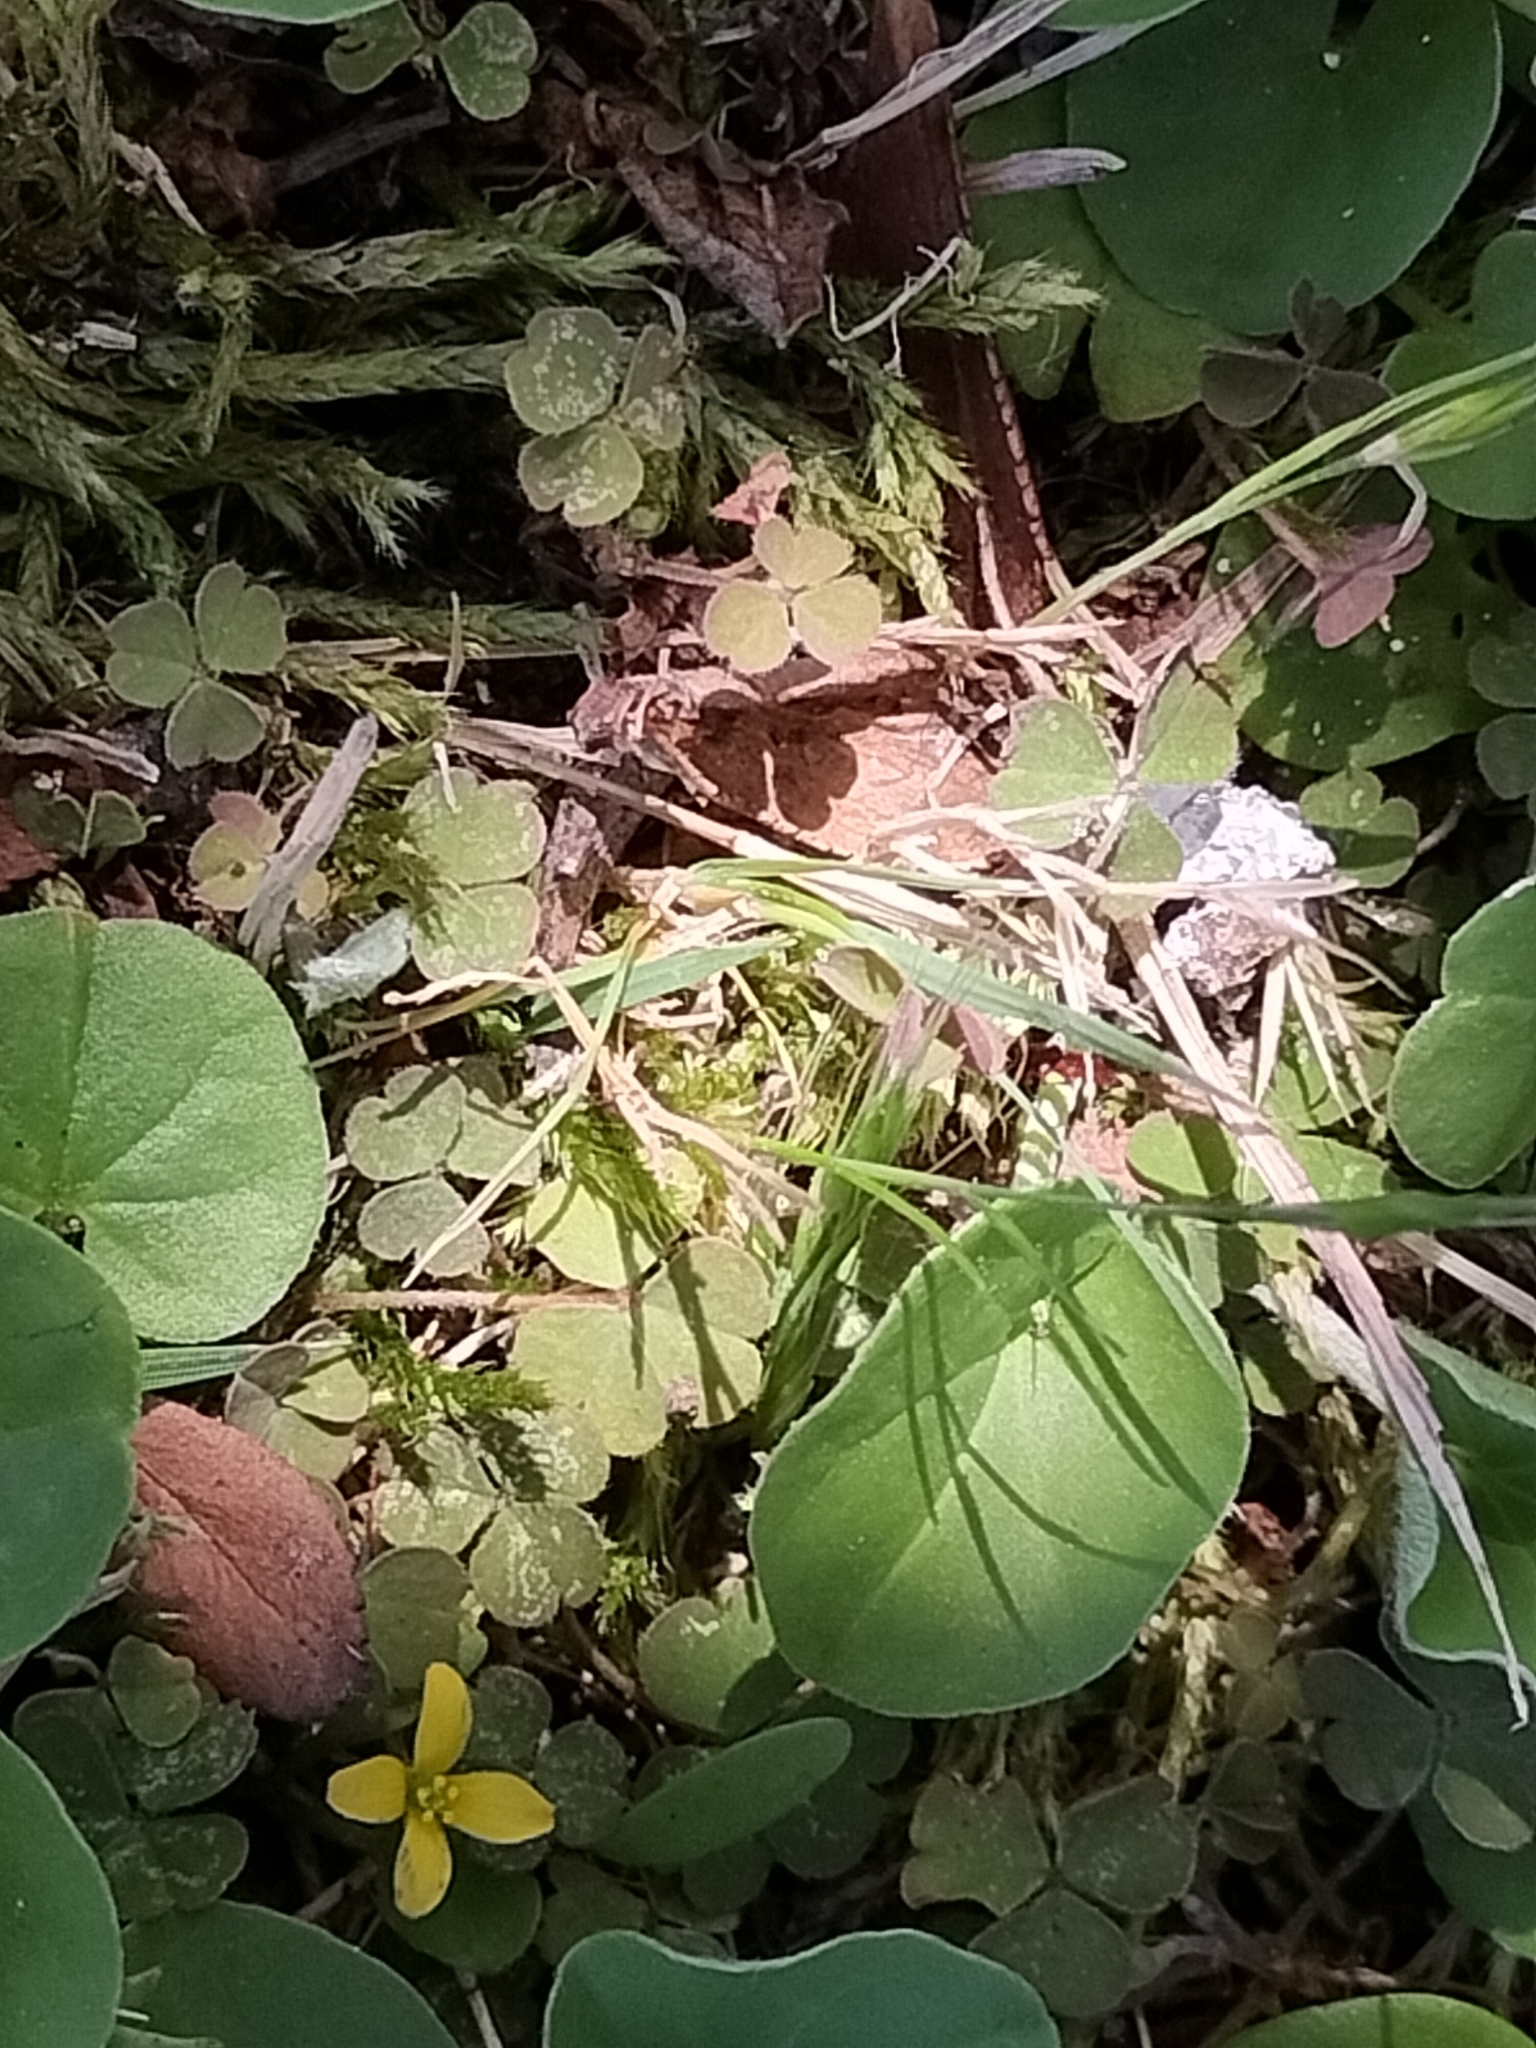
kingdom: Plantae
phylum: Tracheophyta
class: Magnoliopsida
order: Oxalidales
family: Oxalidaceae
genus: Oxalis
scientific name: Oxalis exilis
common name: Least yellow-sorrel
